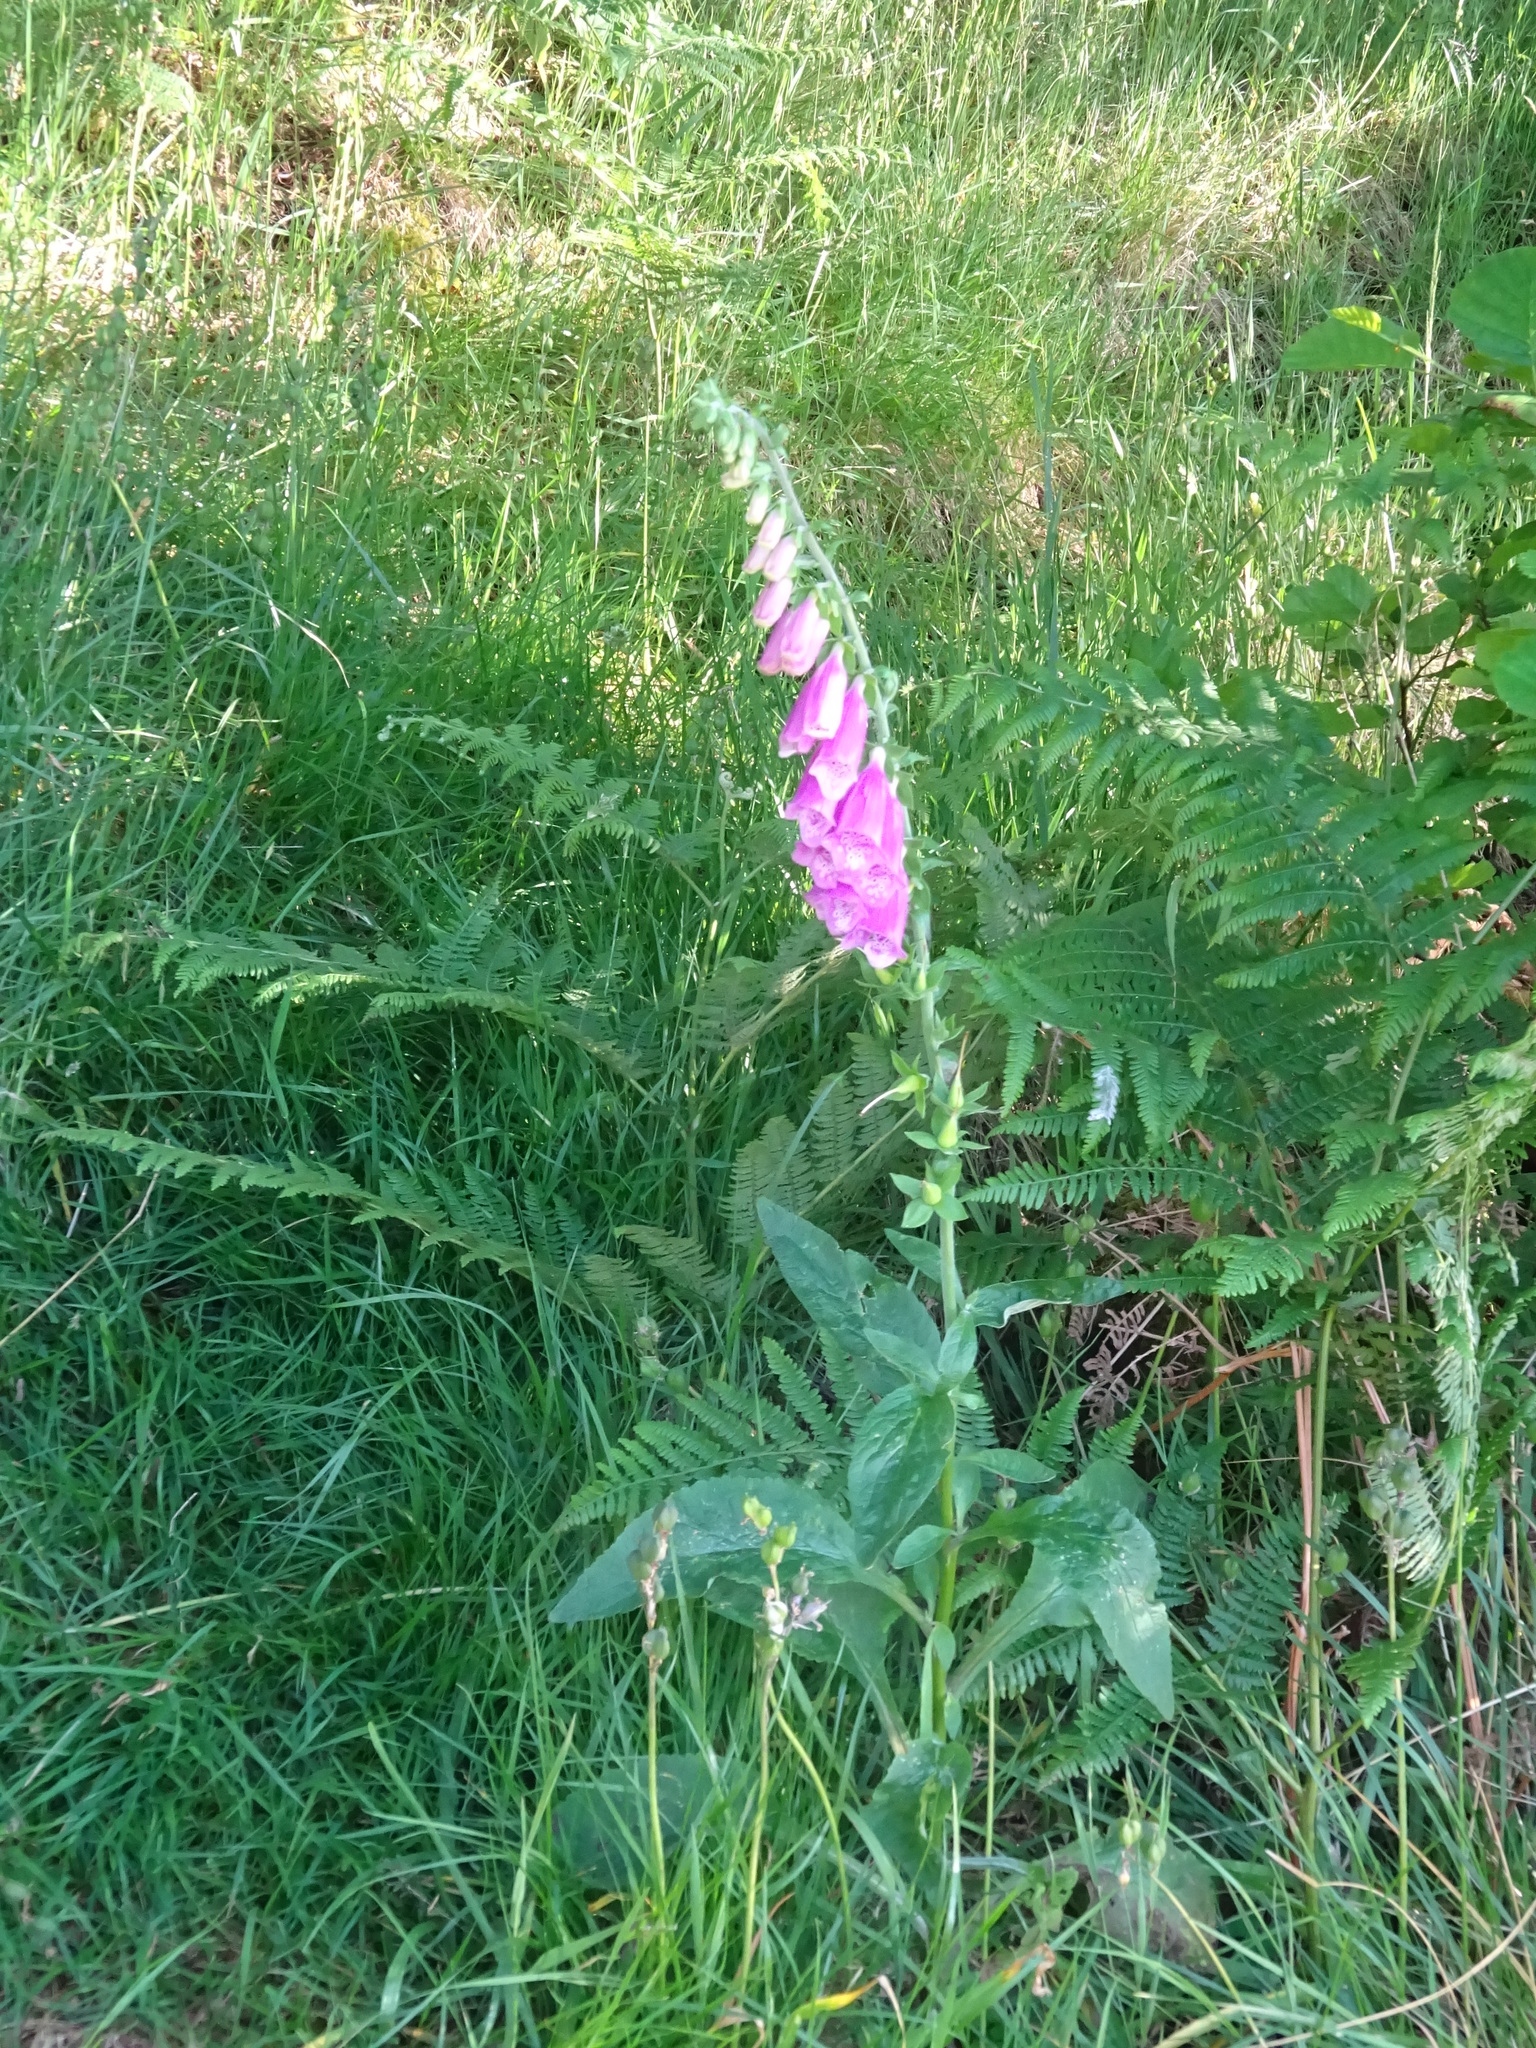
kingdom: Plantae
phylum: Tracheophyta
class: Magnoliopsida
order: Lamiales
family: Plantaginaceae
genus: Digitalis
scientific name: Digitalis purpurea
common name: Foxglove
